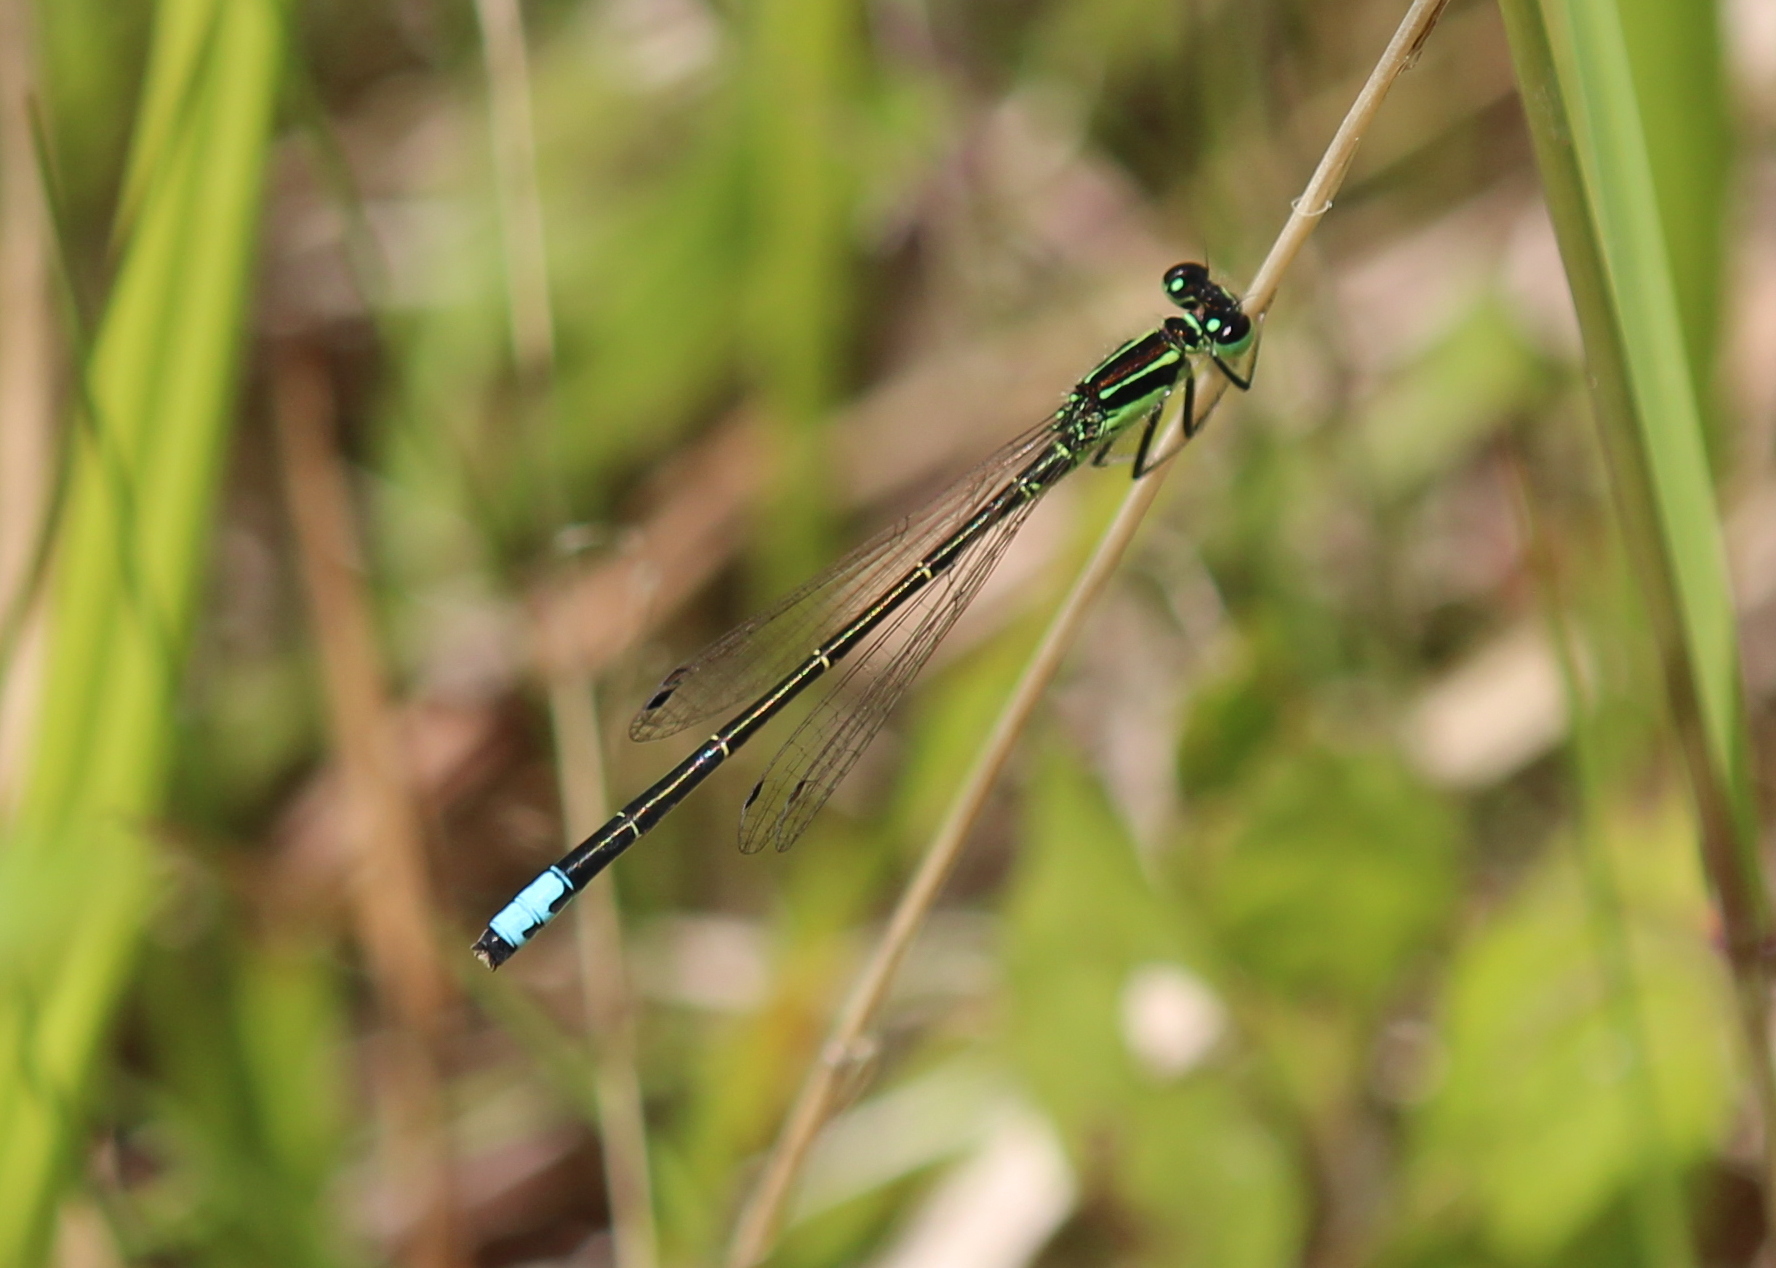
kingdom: Animalia
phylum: Arthropoda
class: Insecta
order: Odonata
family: Coenagrionidae
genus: Ischnura
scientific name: Ischnura verticalis
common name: Eastern forktail
